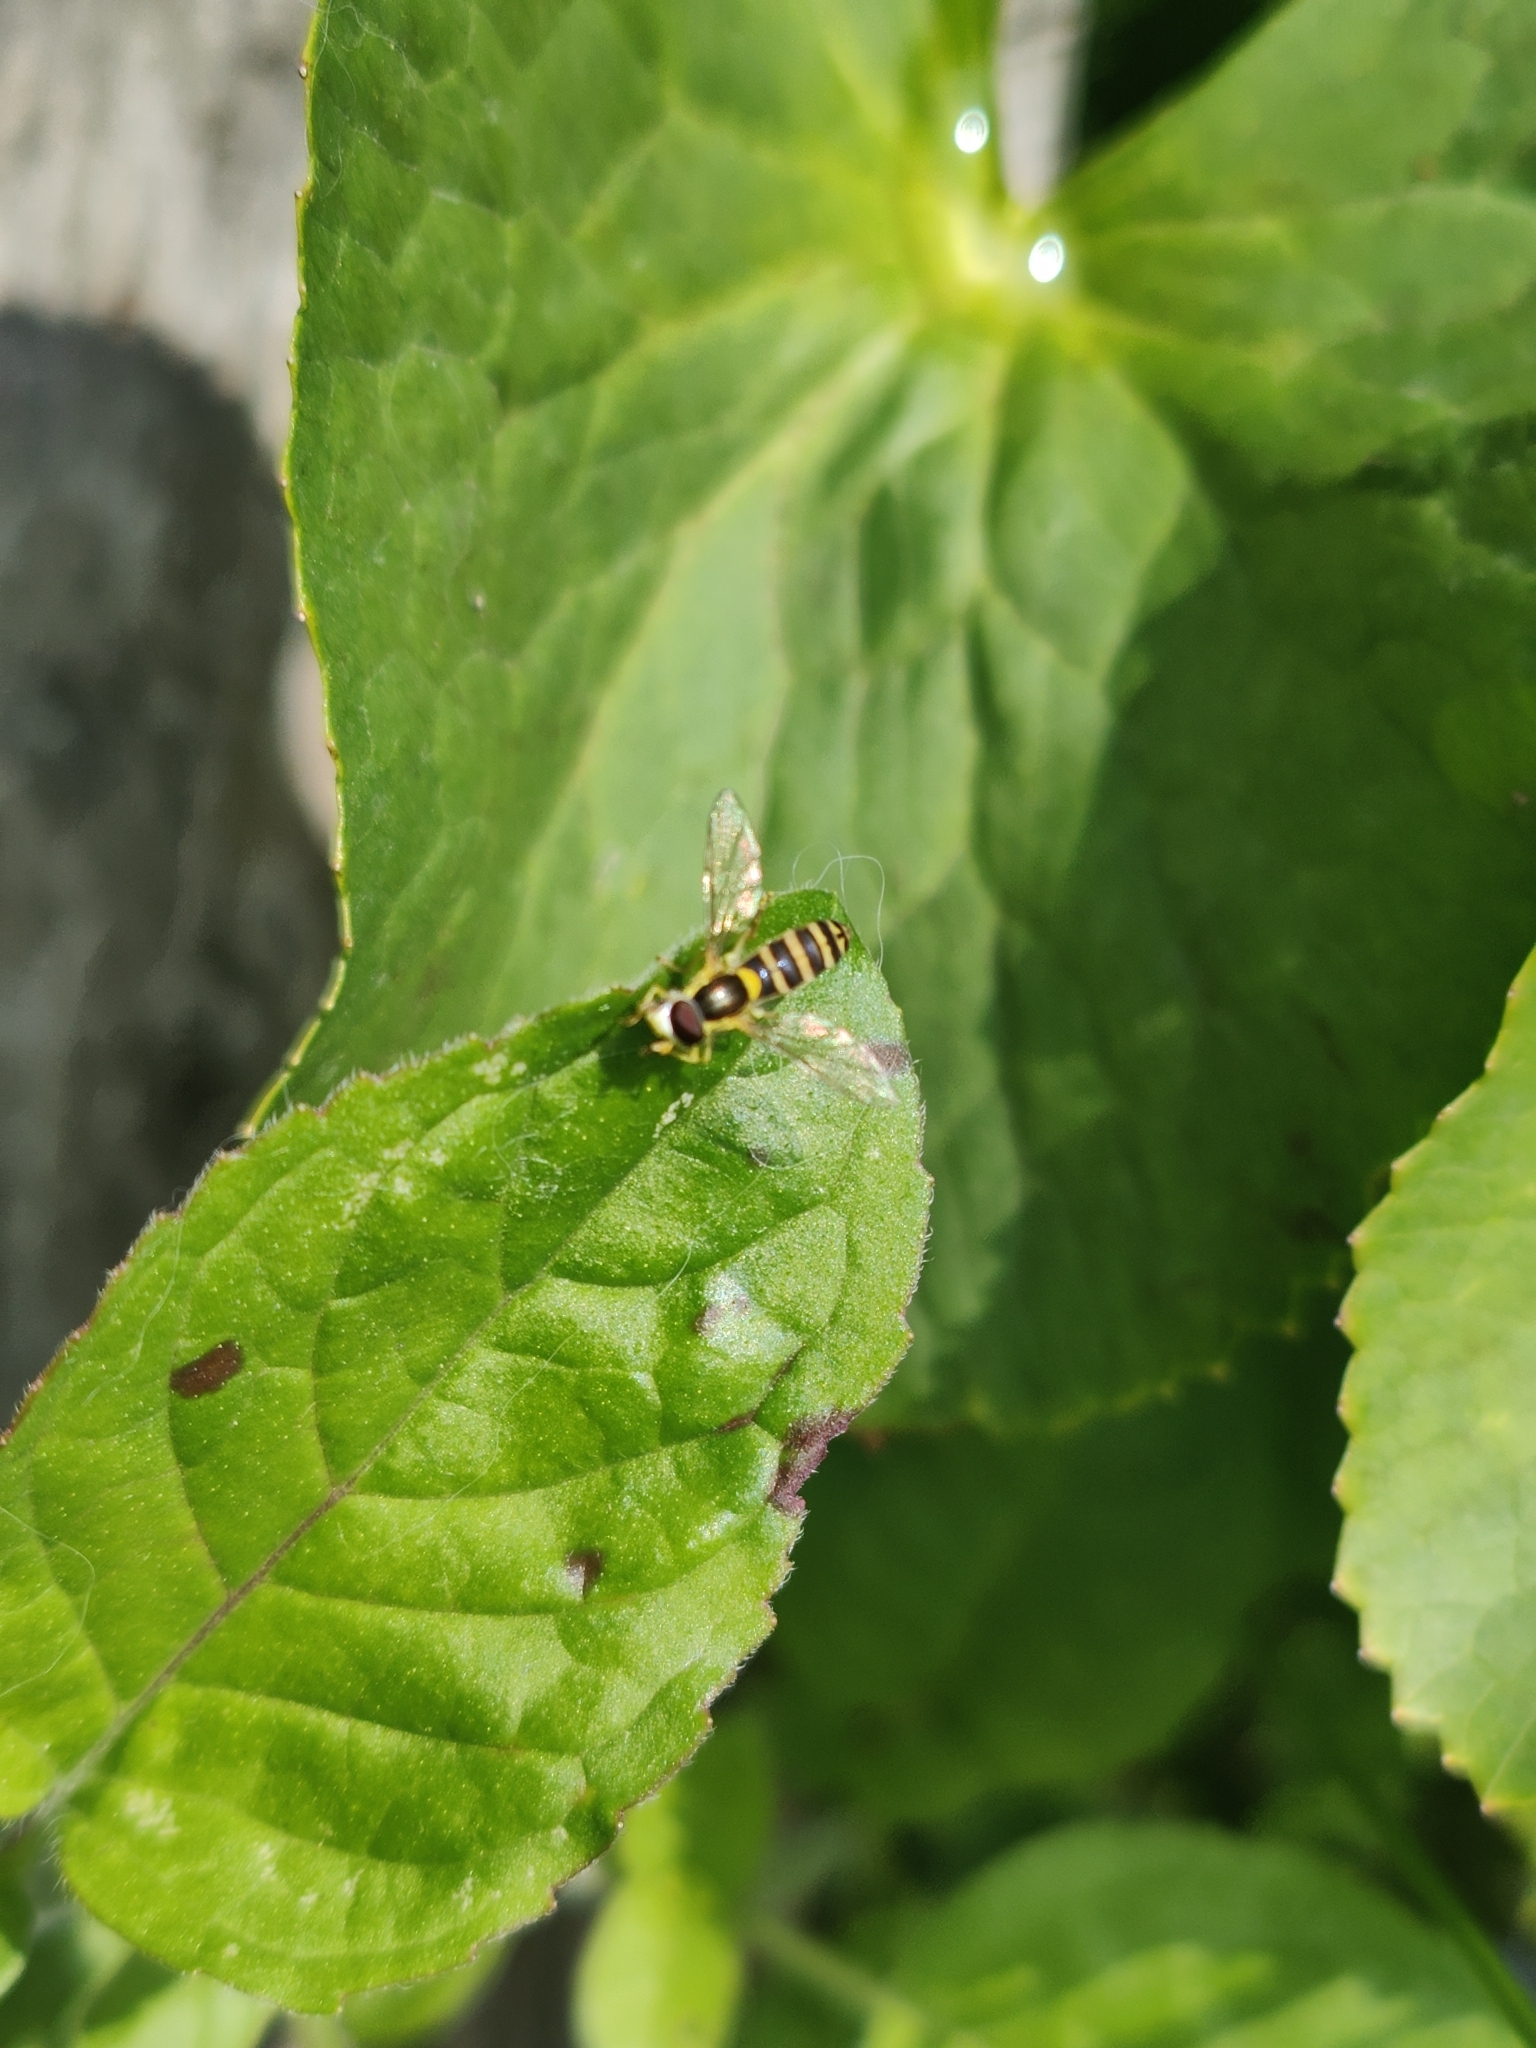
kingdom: Animalia
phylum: Arthropoda
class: Insecta
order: Diptera
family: Syrphidae
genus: Sphaerophoria
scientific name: Sphaerophoria
